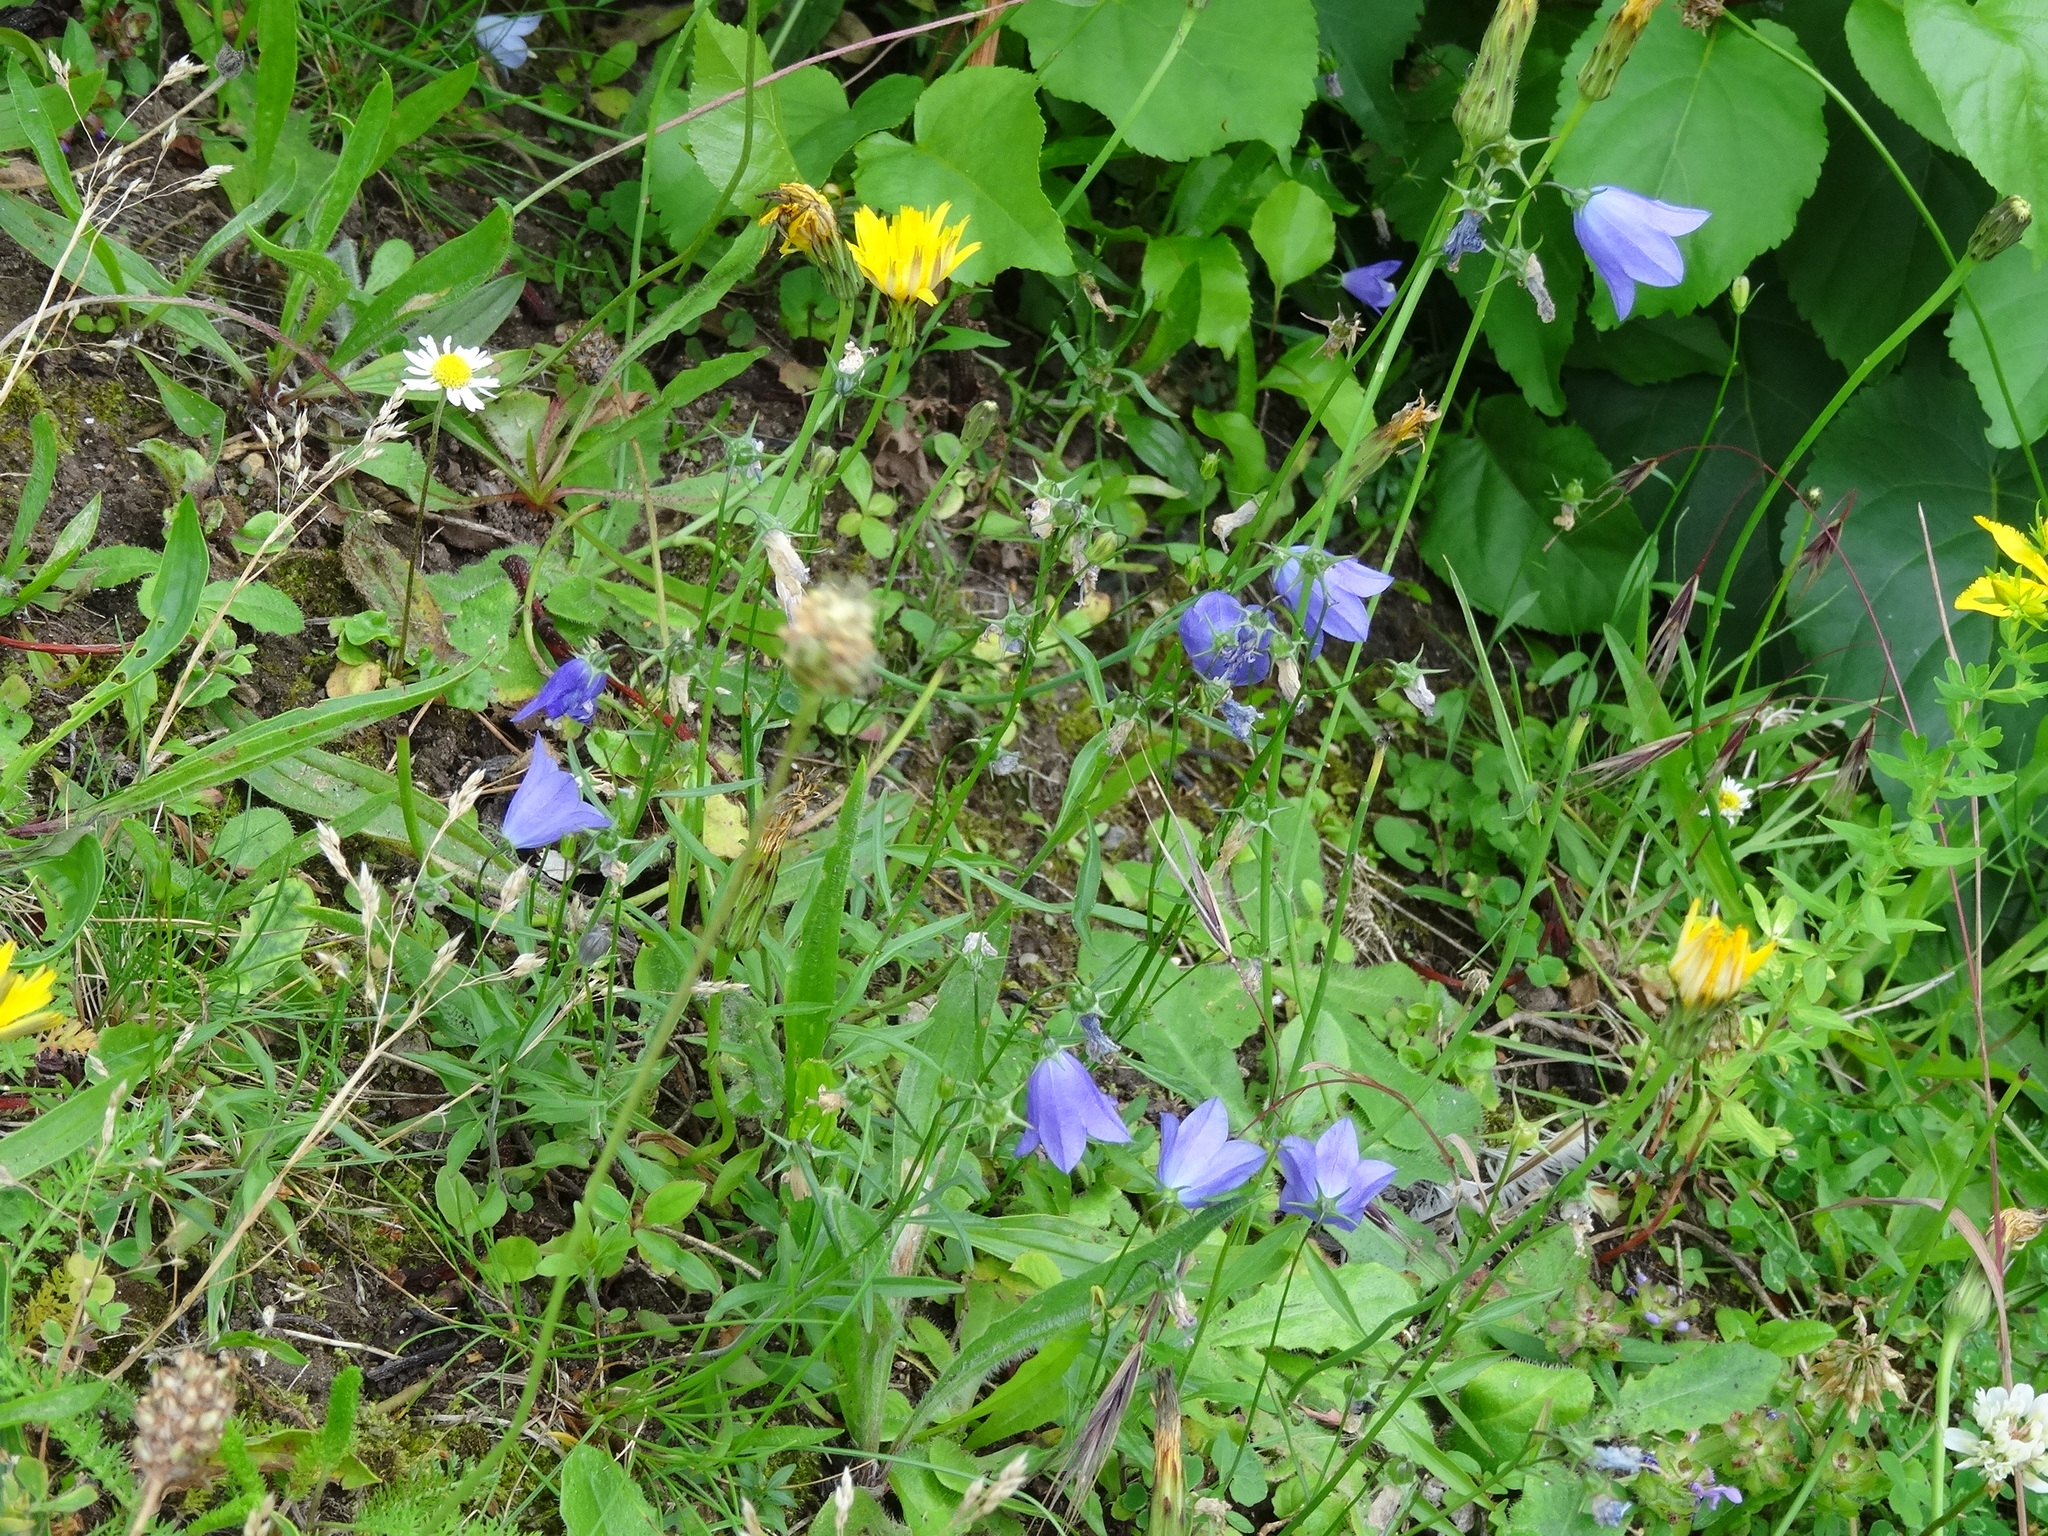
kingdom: Plantae
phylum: Tracheophyta
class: Magnoliopsida
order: Asterales
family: Campanulaceae
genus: Campanula
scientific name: Campanula rotundifolia
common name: Harebell
